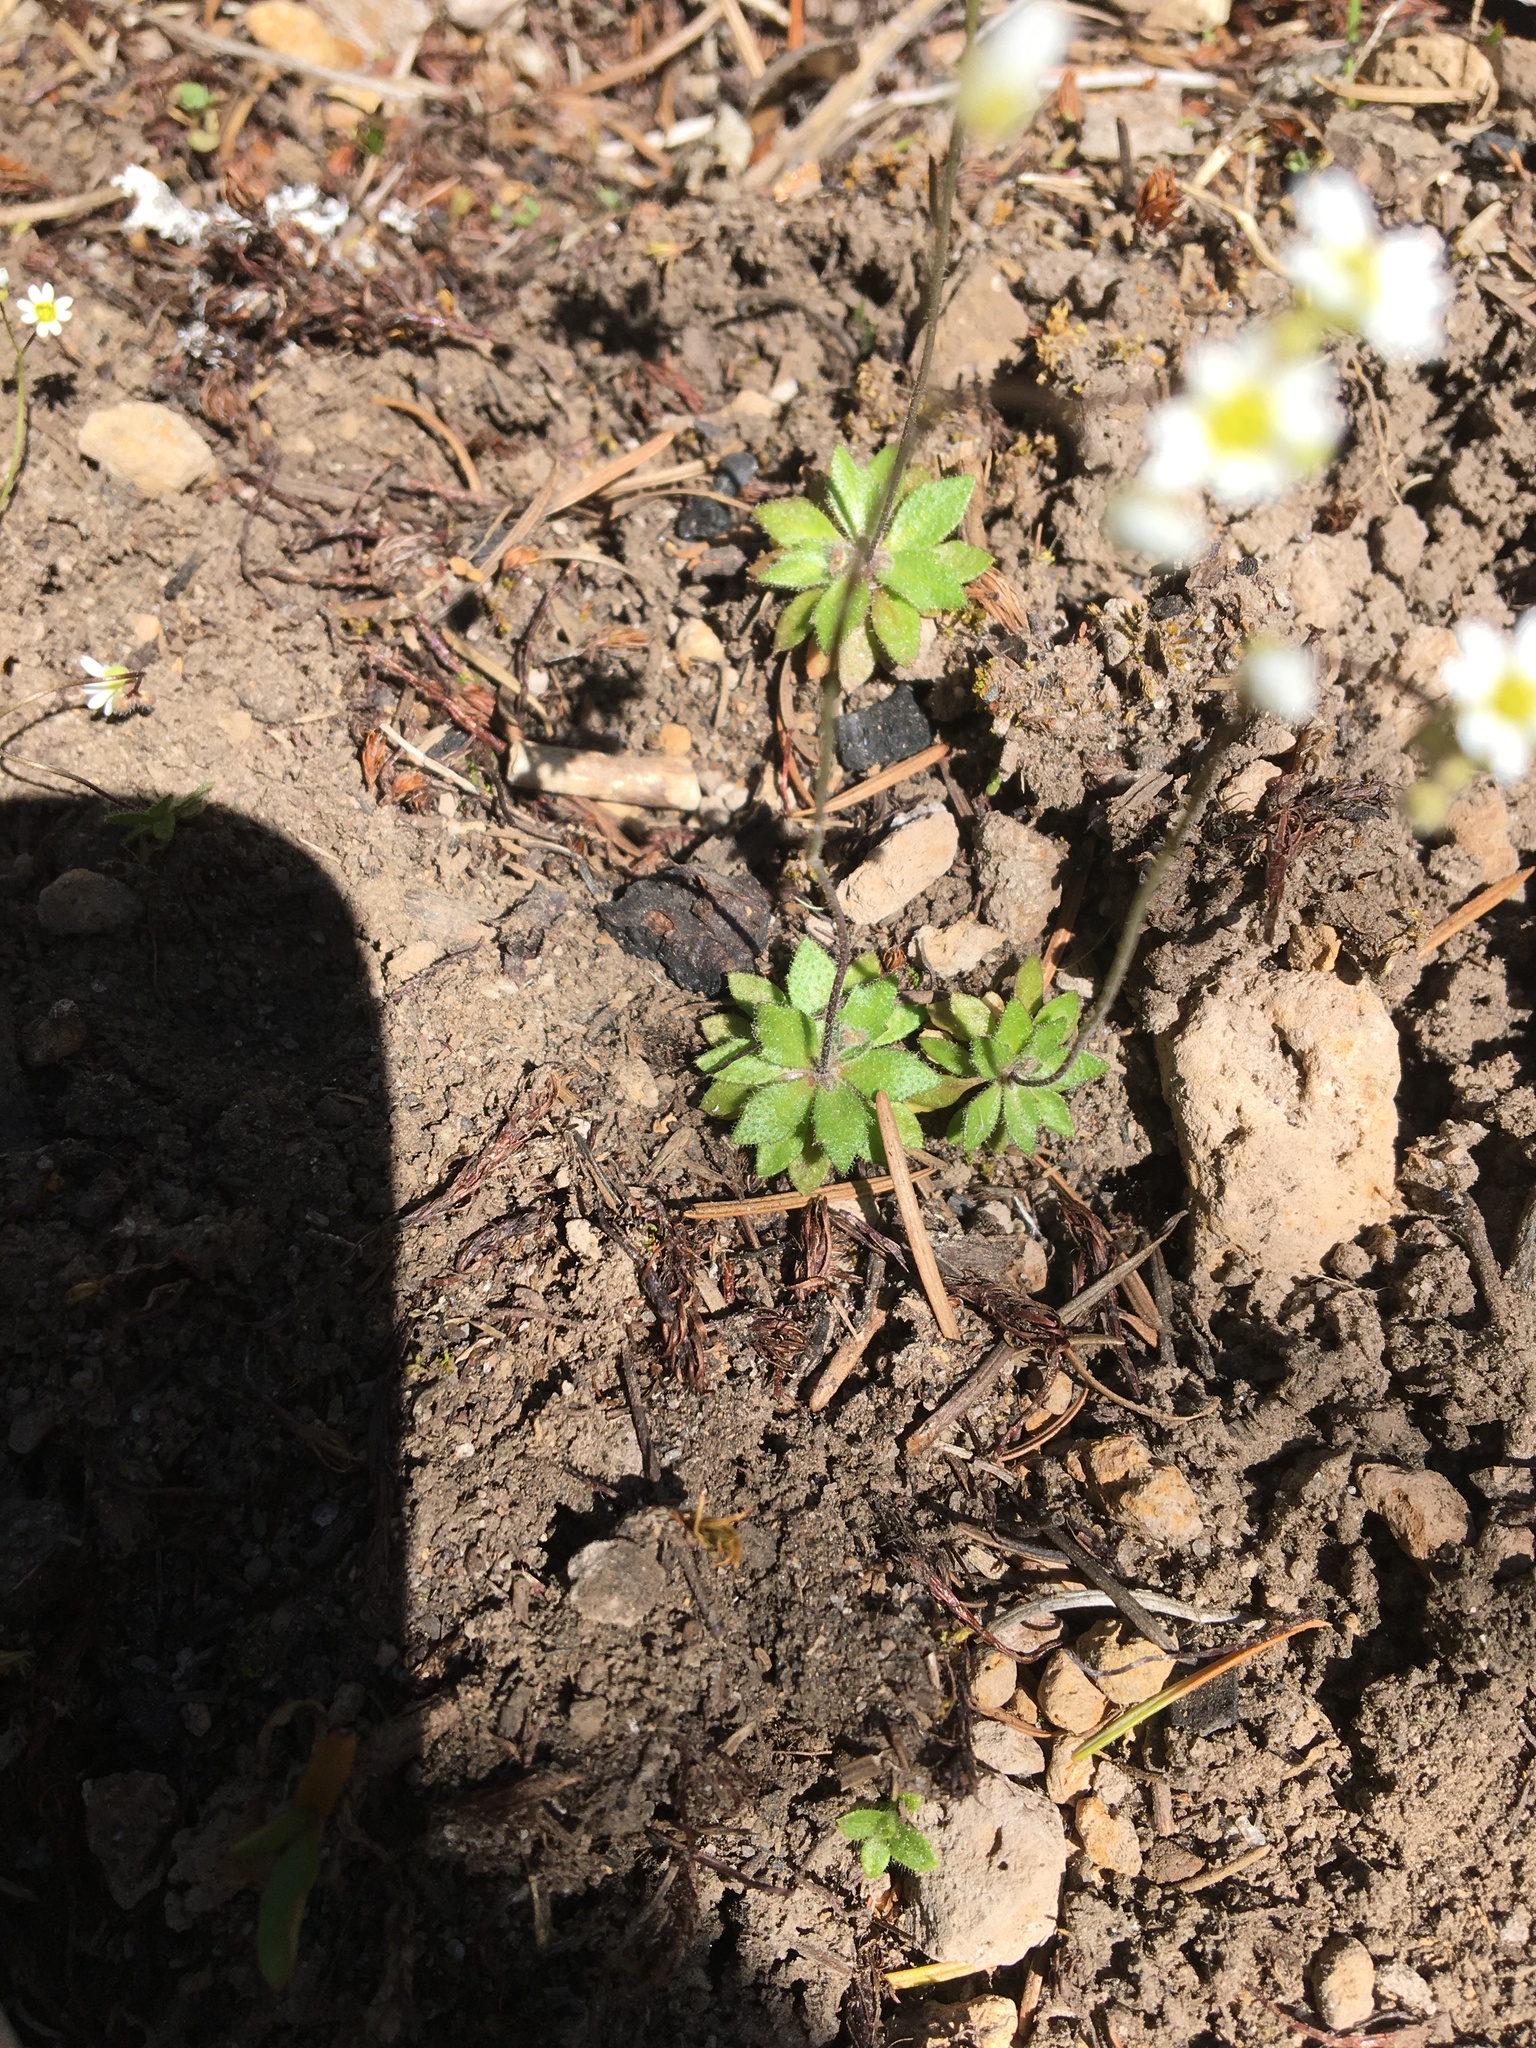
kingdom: Plantae
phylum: Tracheophyta
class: Magnoliopsida
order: Brassicales
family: Brassicaceae
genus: Draba
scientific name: Draba verna
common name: Spring draba
